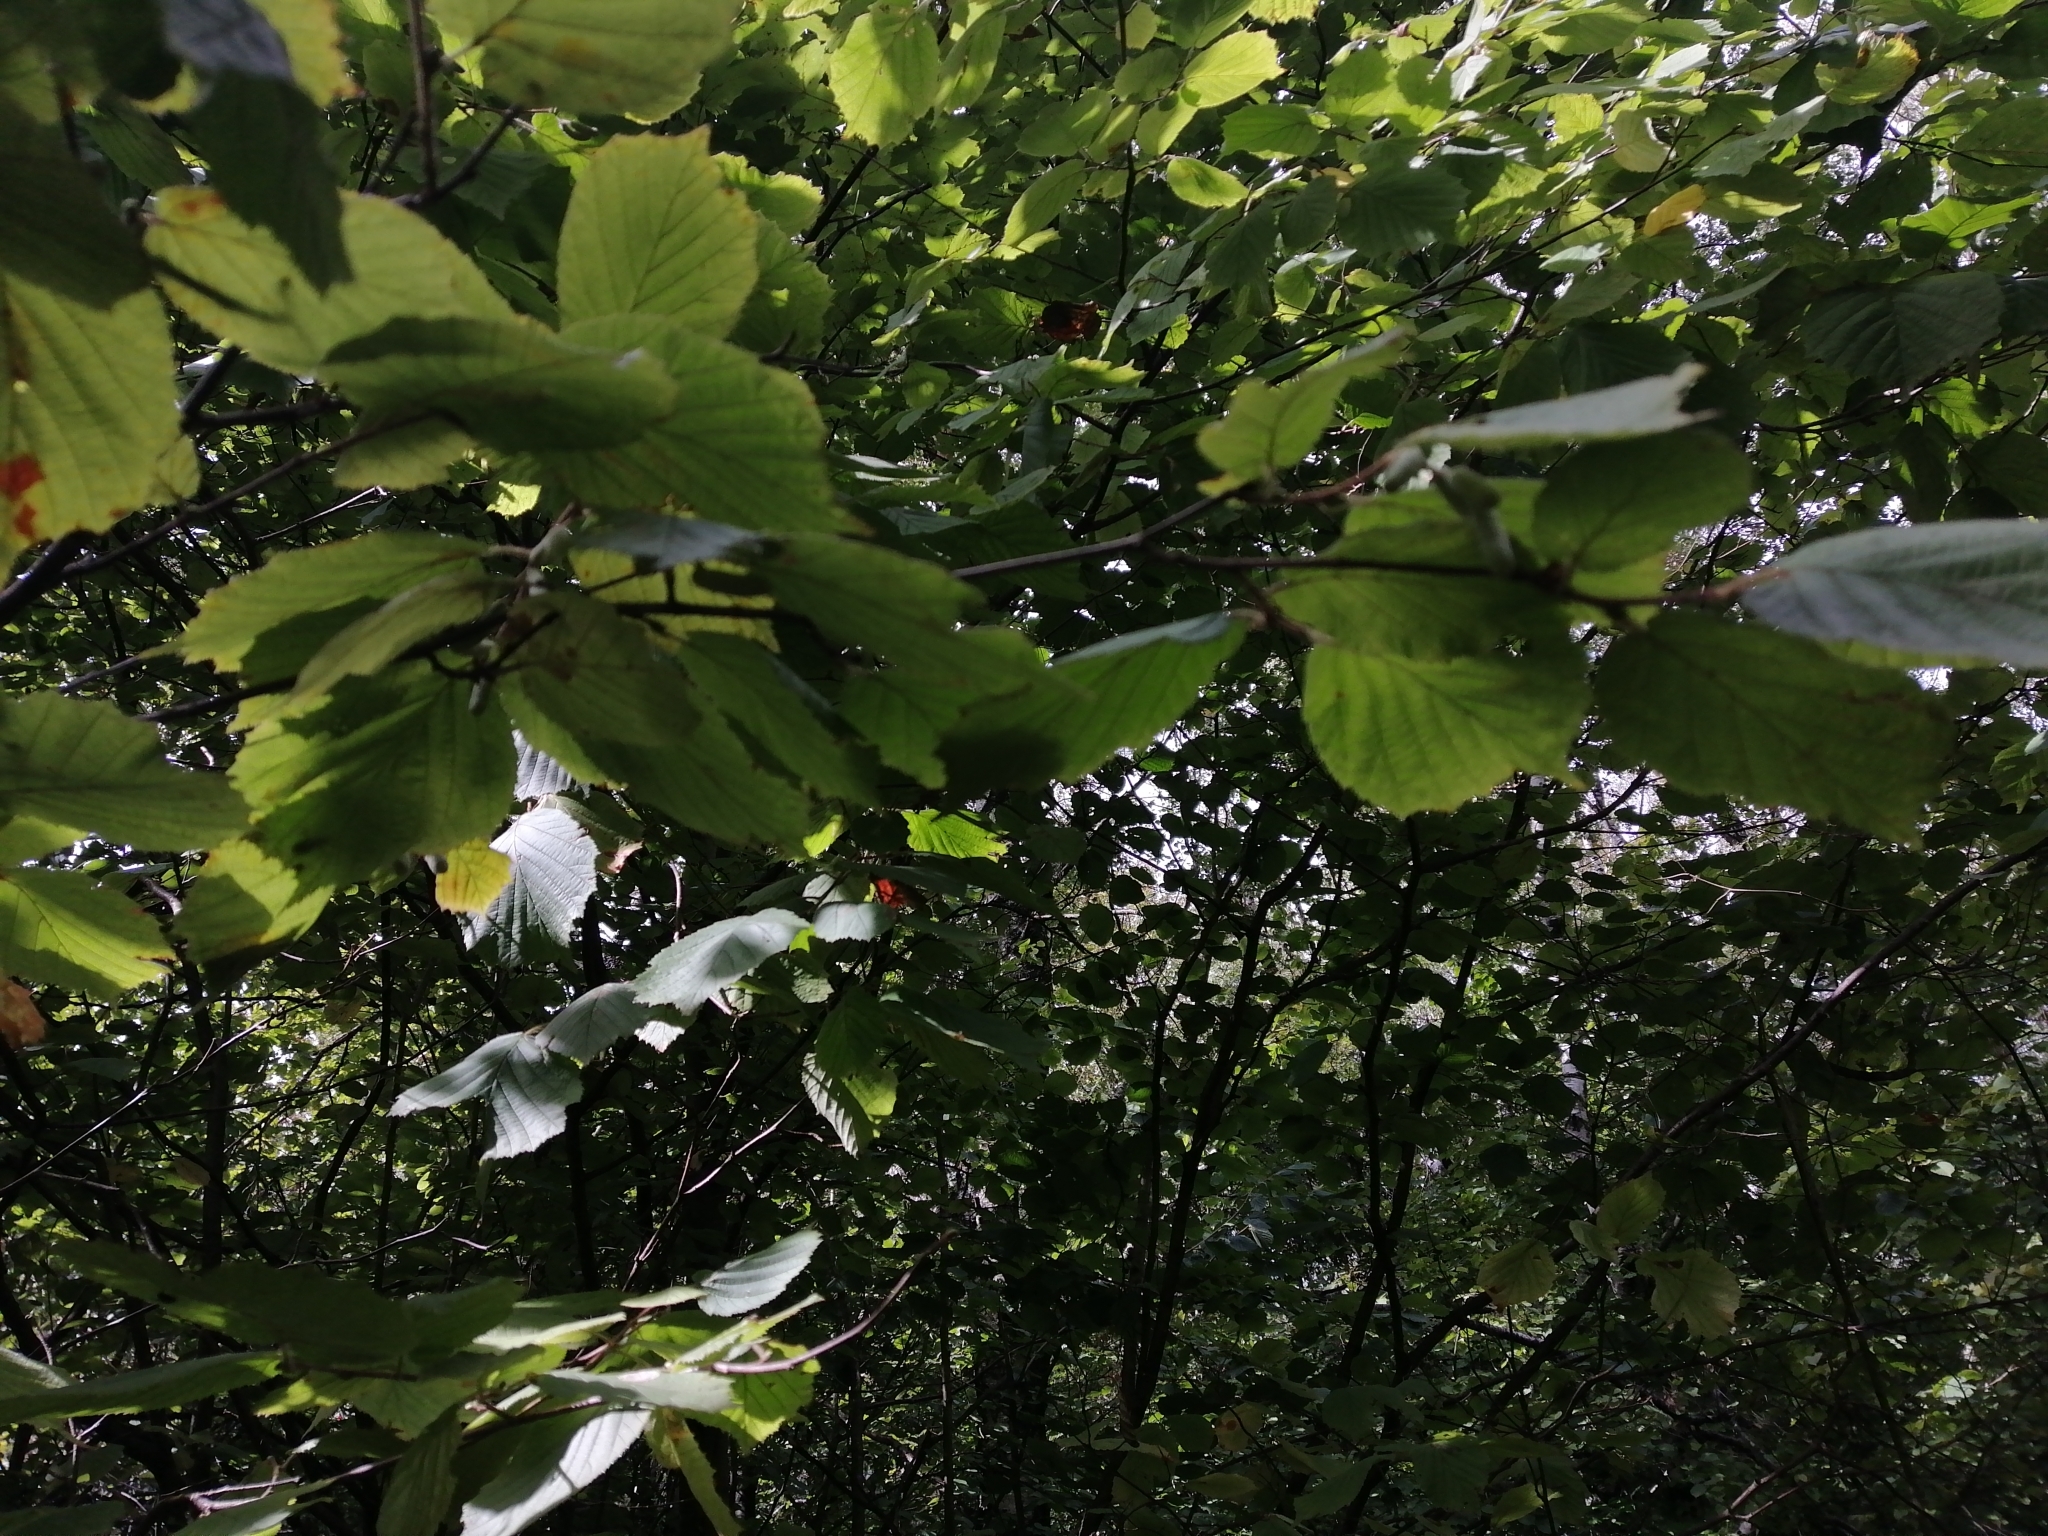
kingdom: Plantae
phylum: Tracheophyta
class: Magnoliopsida
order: Fagales
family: Betulaceae
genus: Corylus
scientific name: Corylus avellana
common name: European hazel
